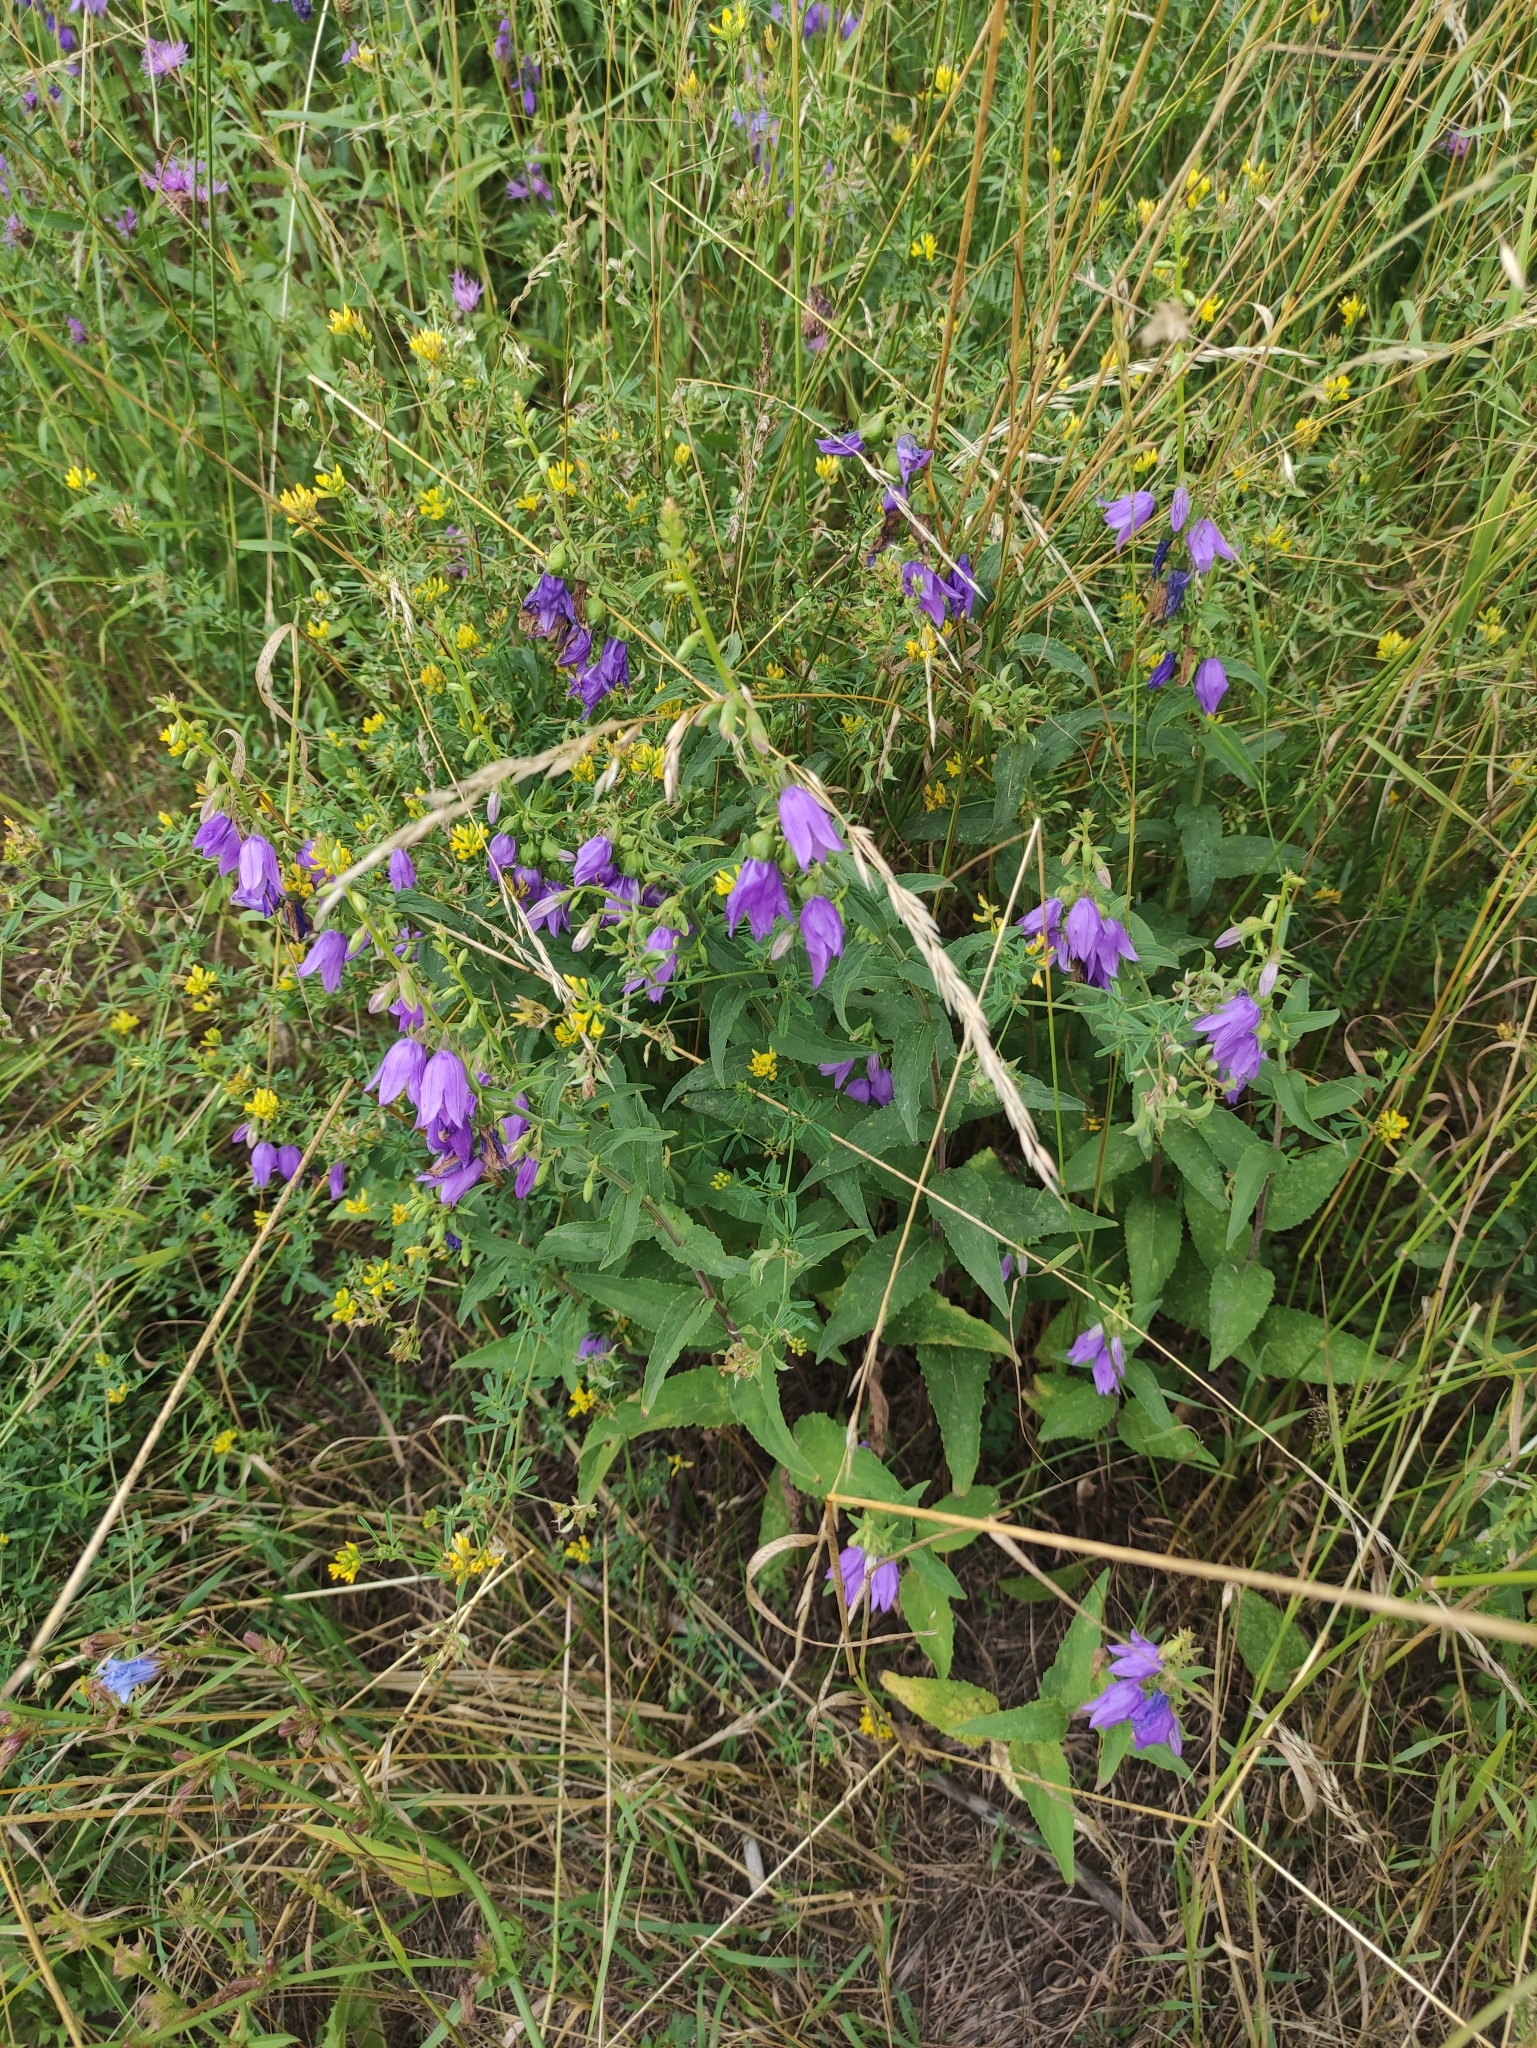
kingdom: Plantae
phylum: Tracheophyta
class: Magnoliopsida
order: Asterales
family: Campanulaceae
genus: Campanula
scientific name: Campanula rapunculoides
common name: Creeping bellflower
